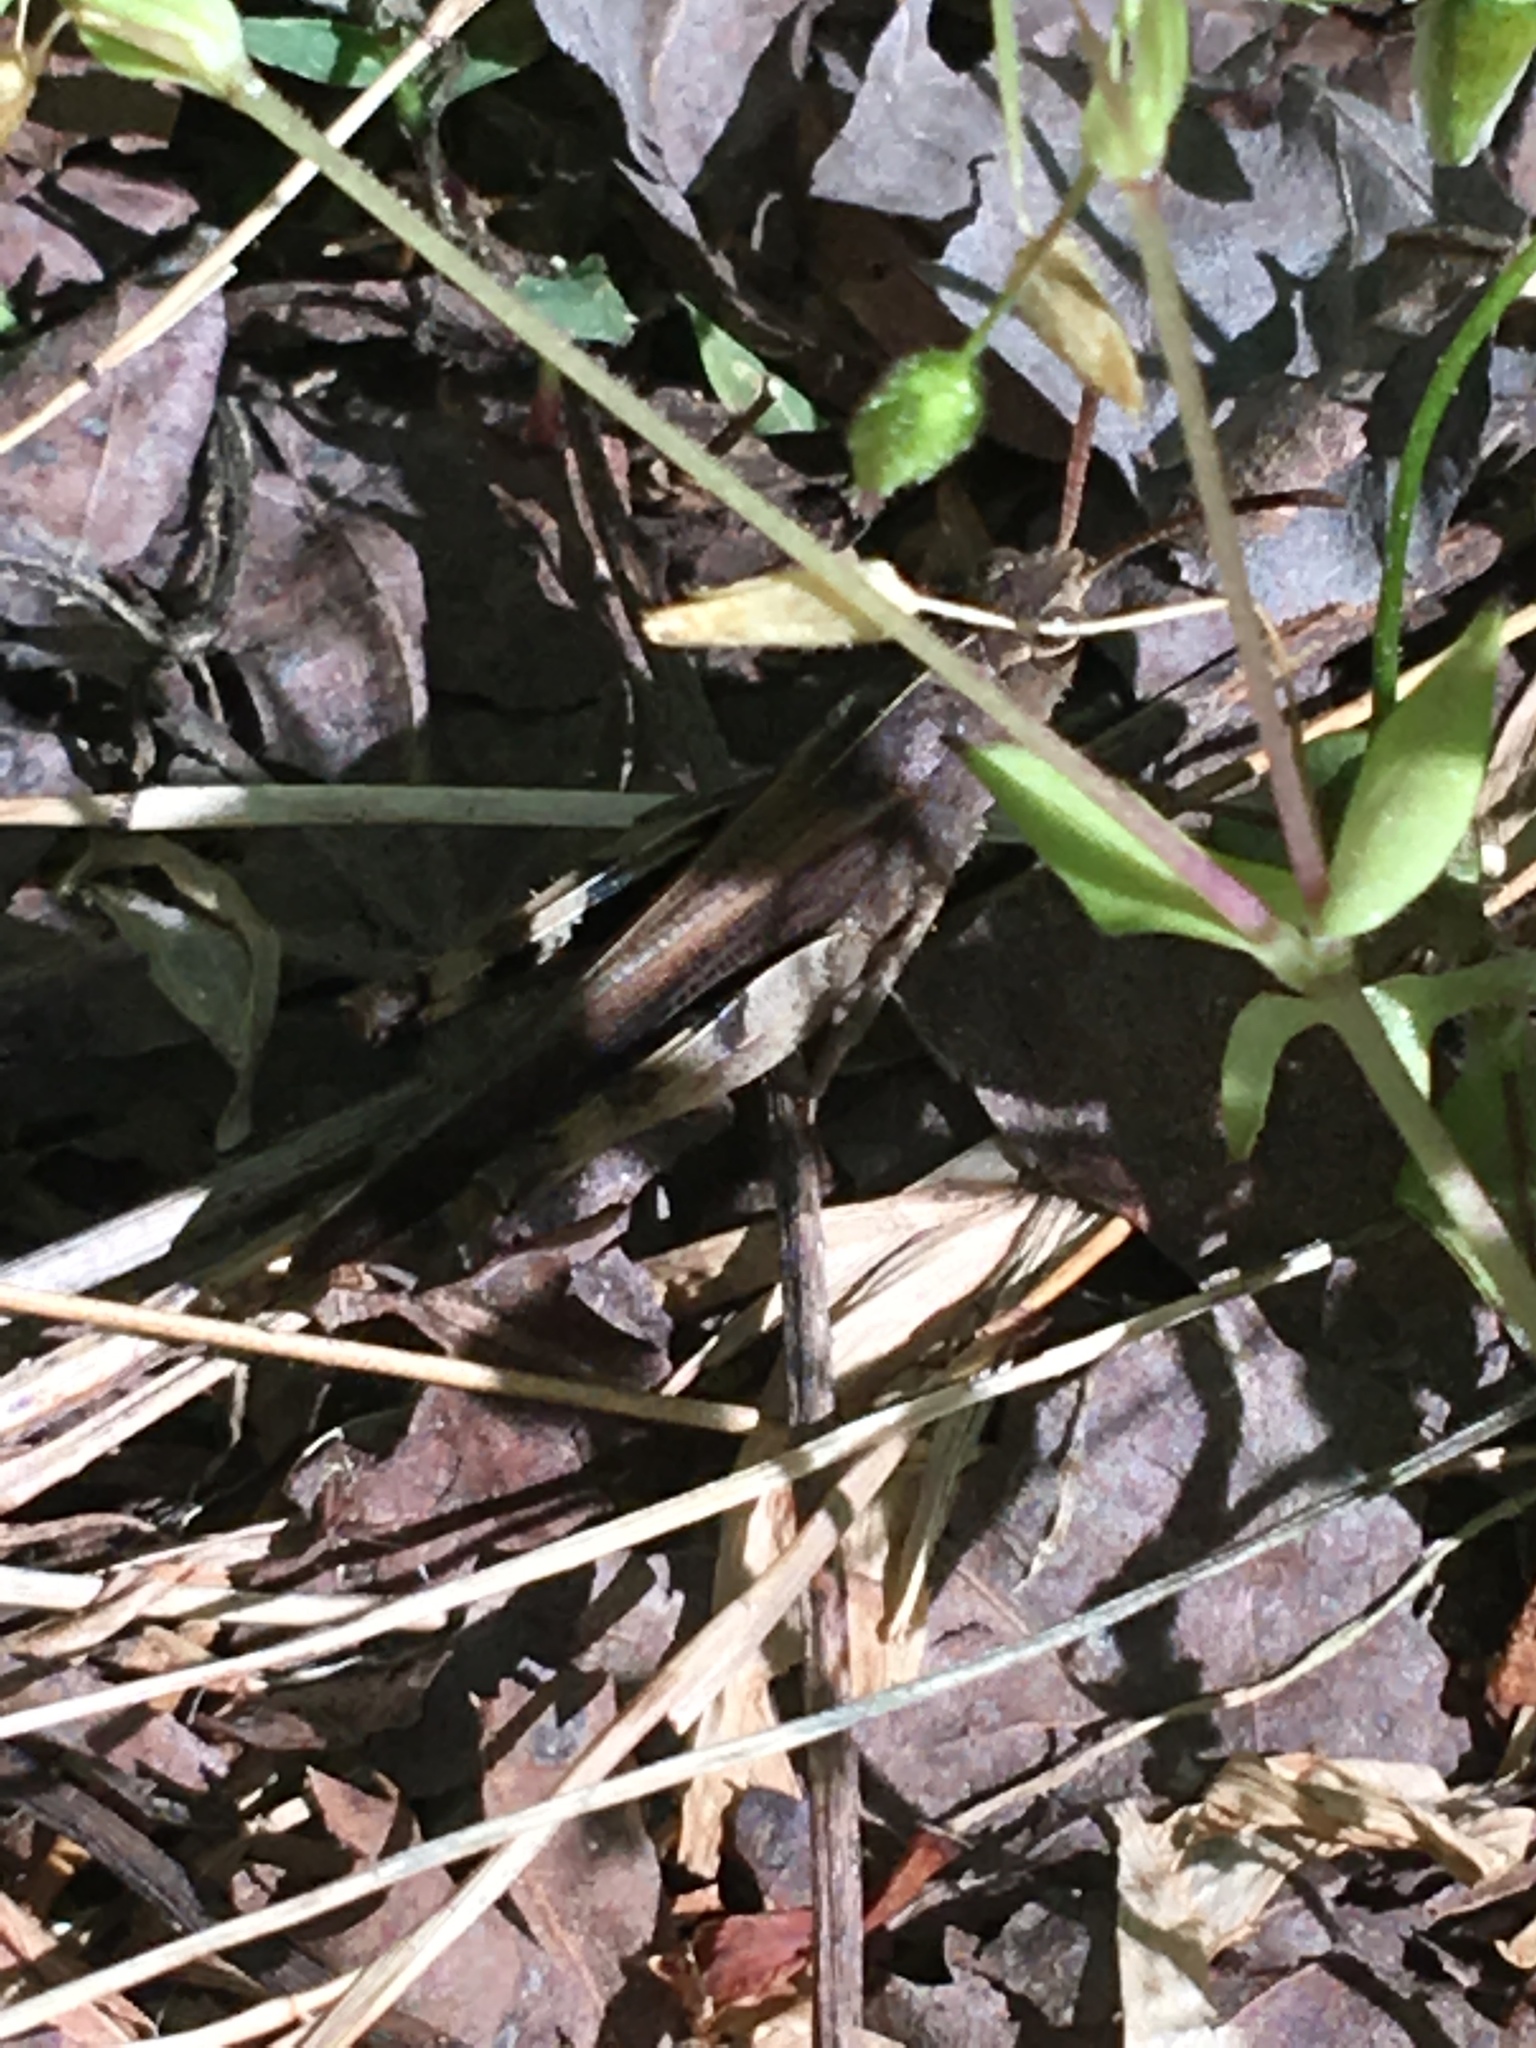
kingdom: Animalia
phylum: Arthropoda
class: Insecta
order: Orthoptera
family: Acrididae
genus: Chortophaga
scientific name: Chortophaga viridifasciata
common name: Green-striped grasshopper
